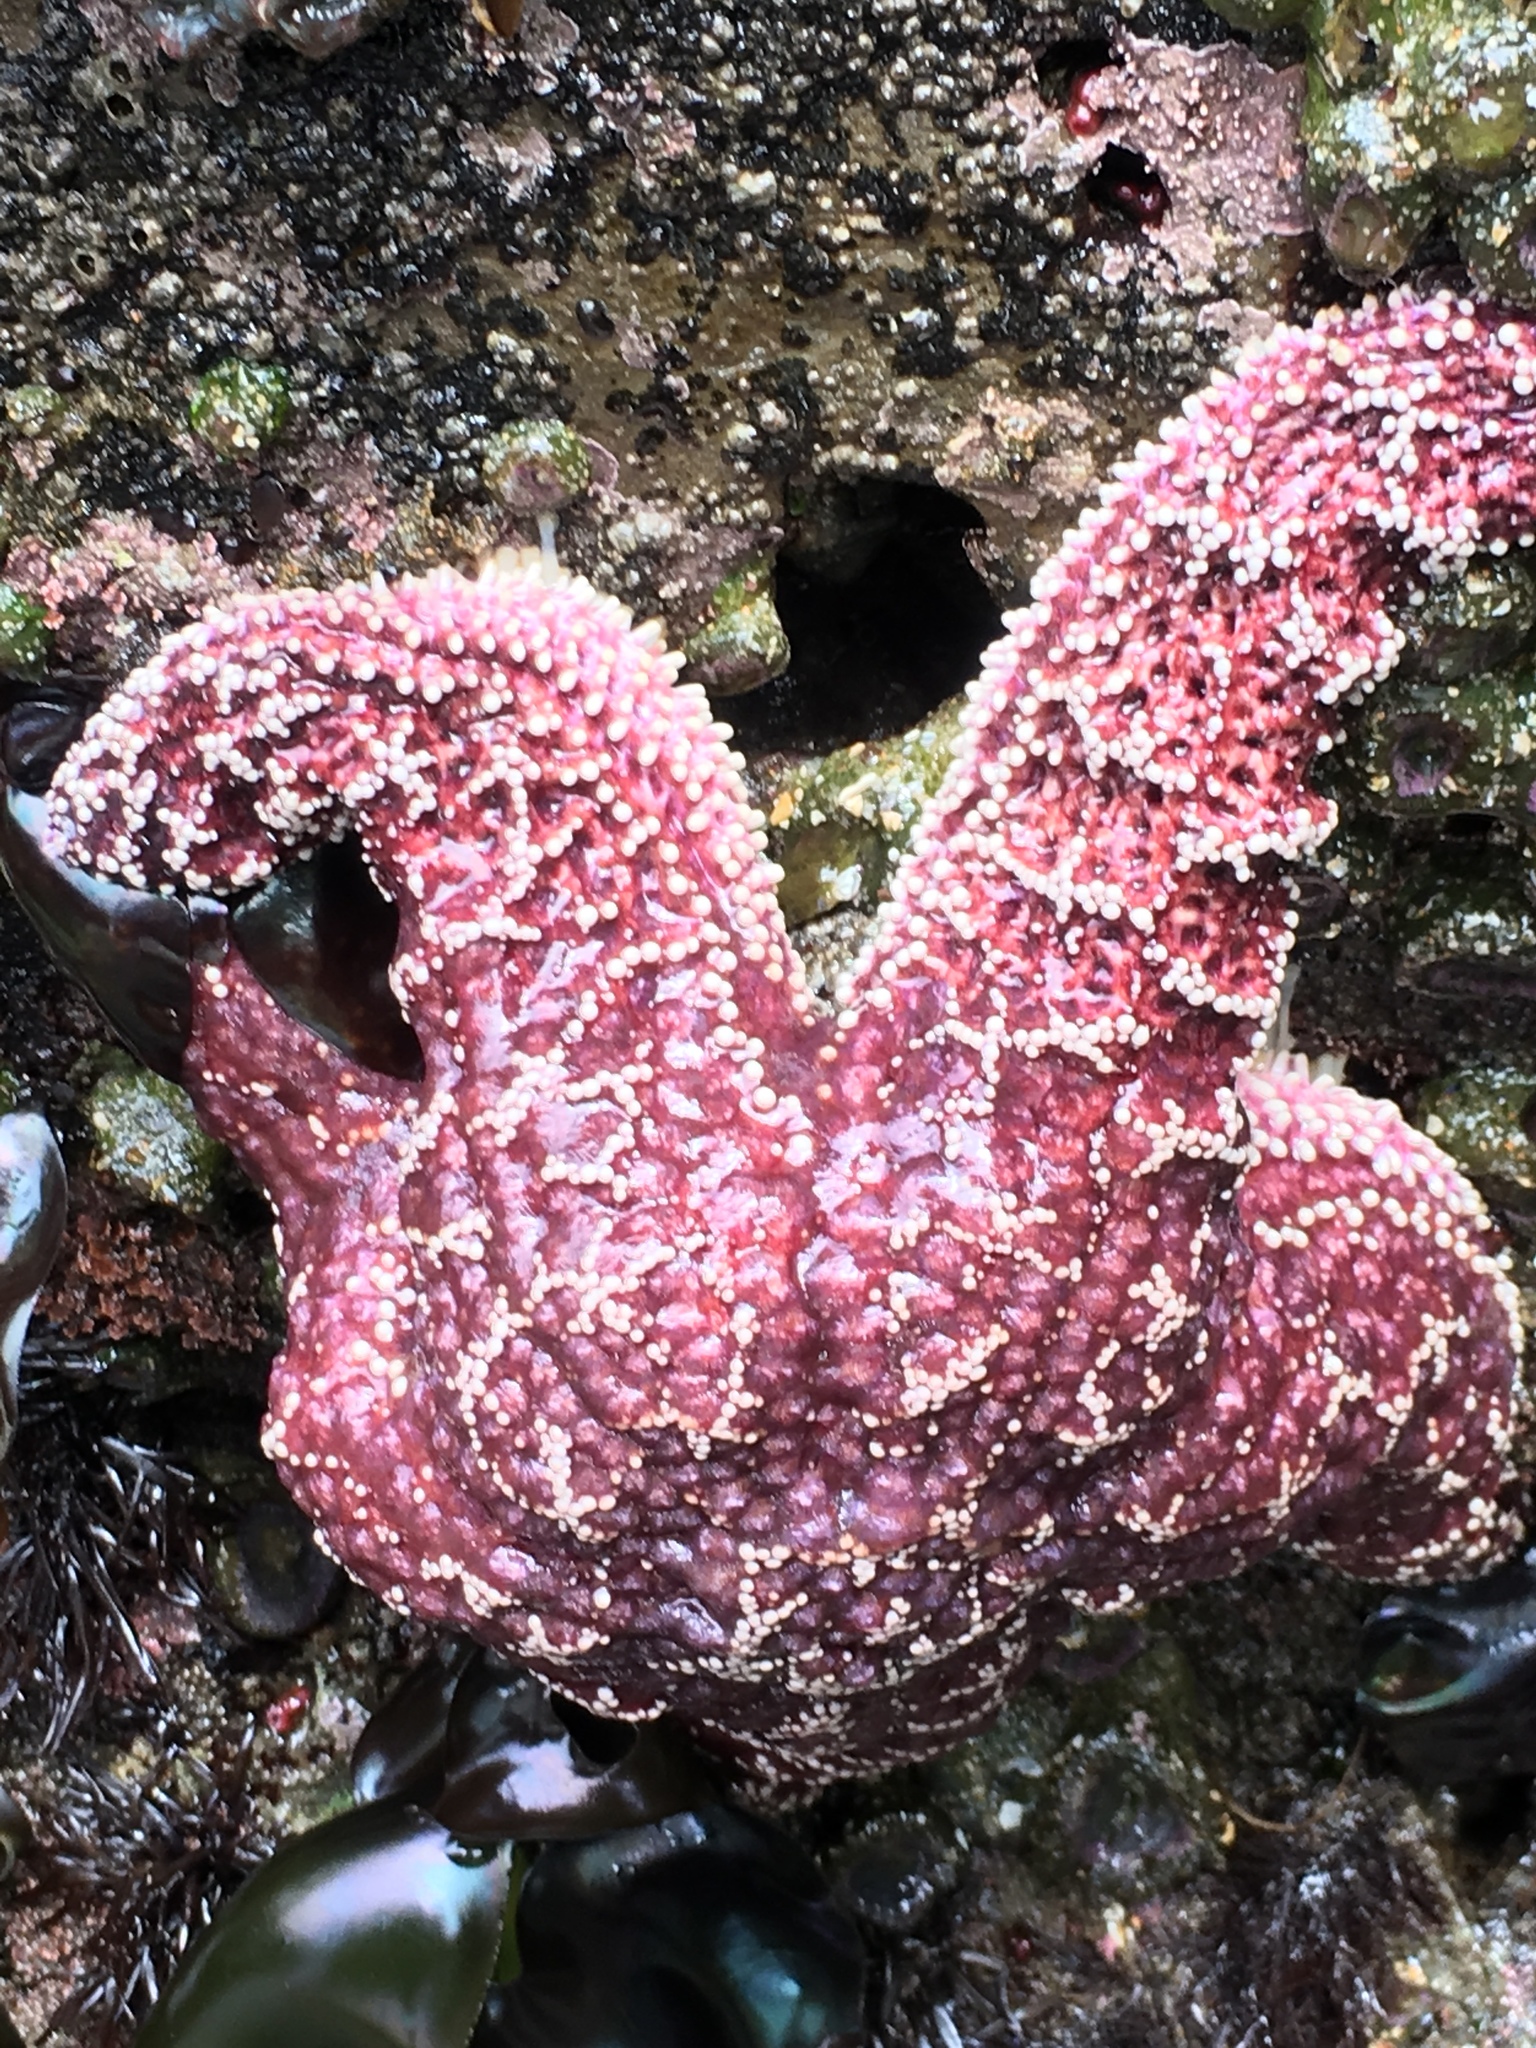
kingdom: Animalia
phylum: Echinodermata
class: Asteroidea
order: Forcipulatida
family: Asteriidae
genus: Pisaster
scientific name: Pisaster ochraceus
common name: Ochre stars
